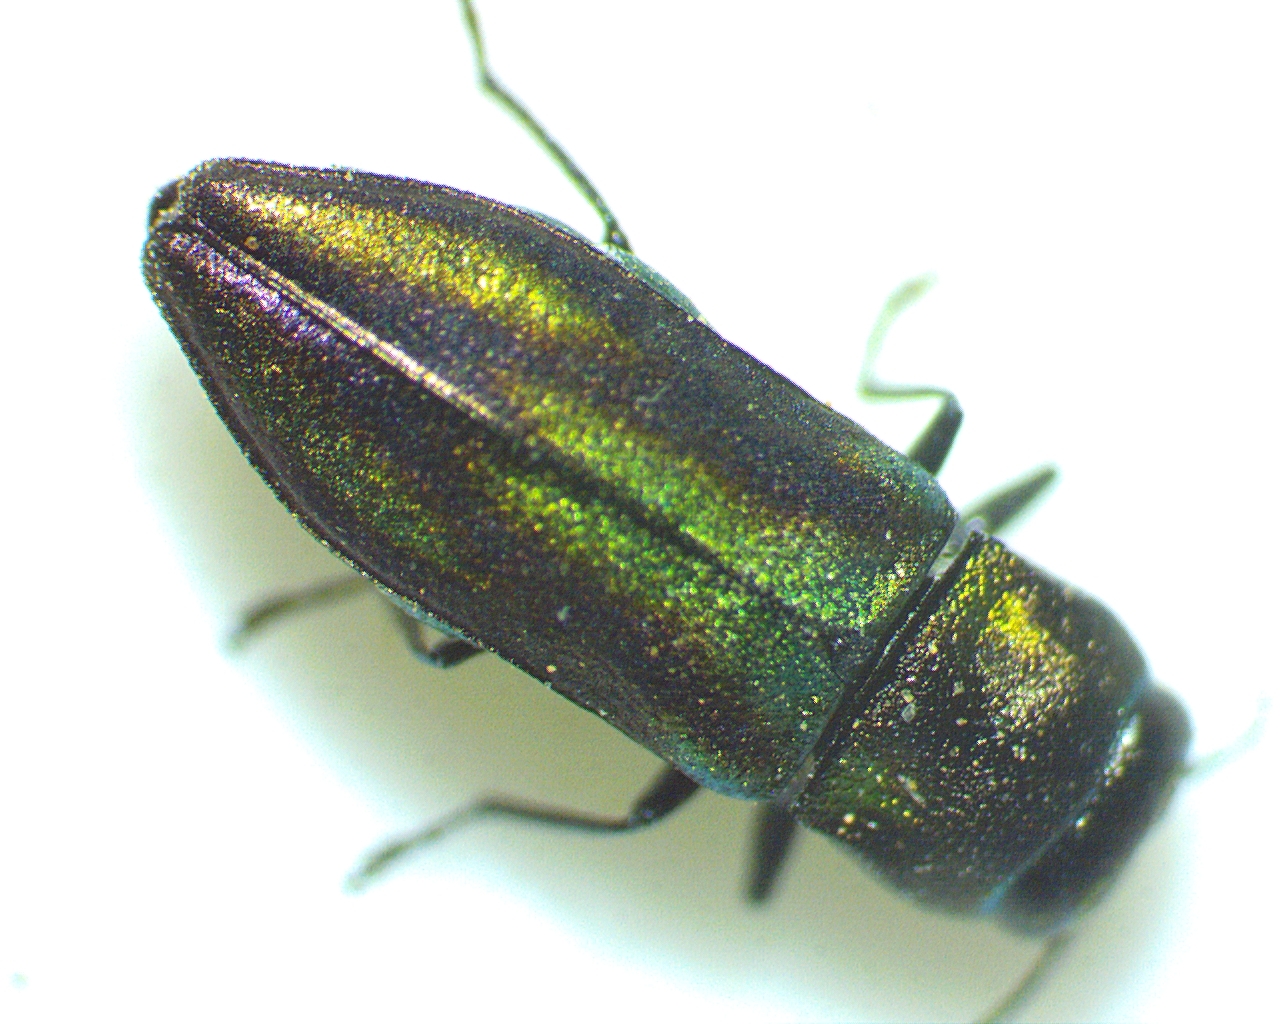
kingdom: Animalia
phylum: Arthropoda
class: Insecta
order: Coleoptera
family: Buprestidae
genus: Anthaxia
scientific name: Anthaxia quercata
